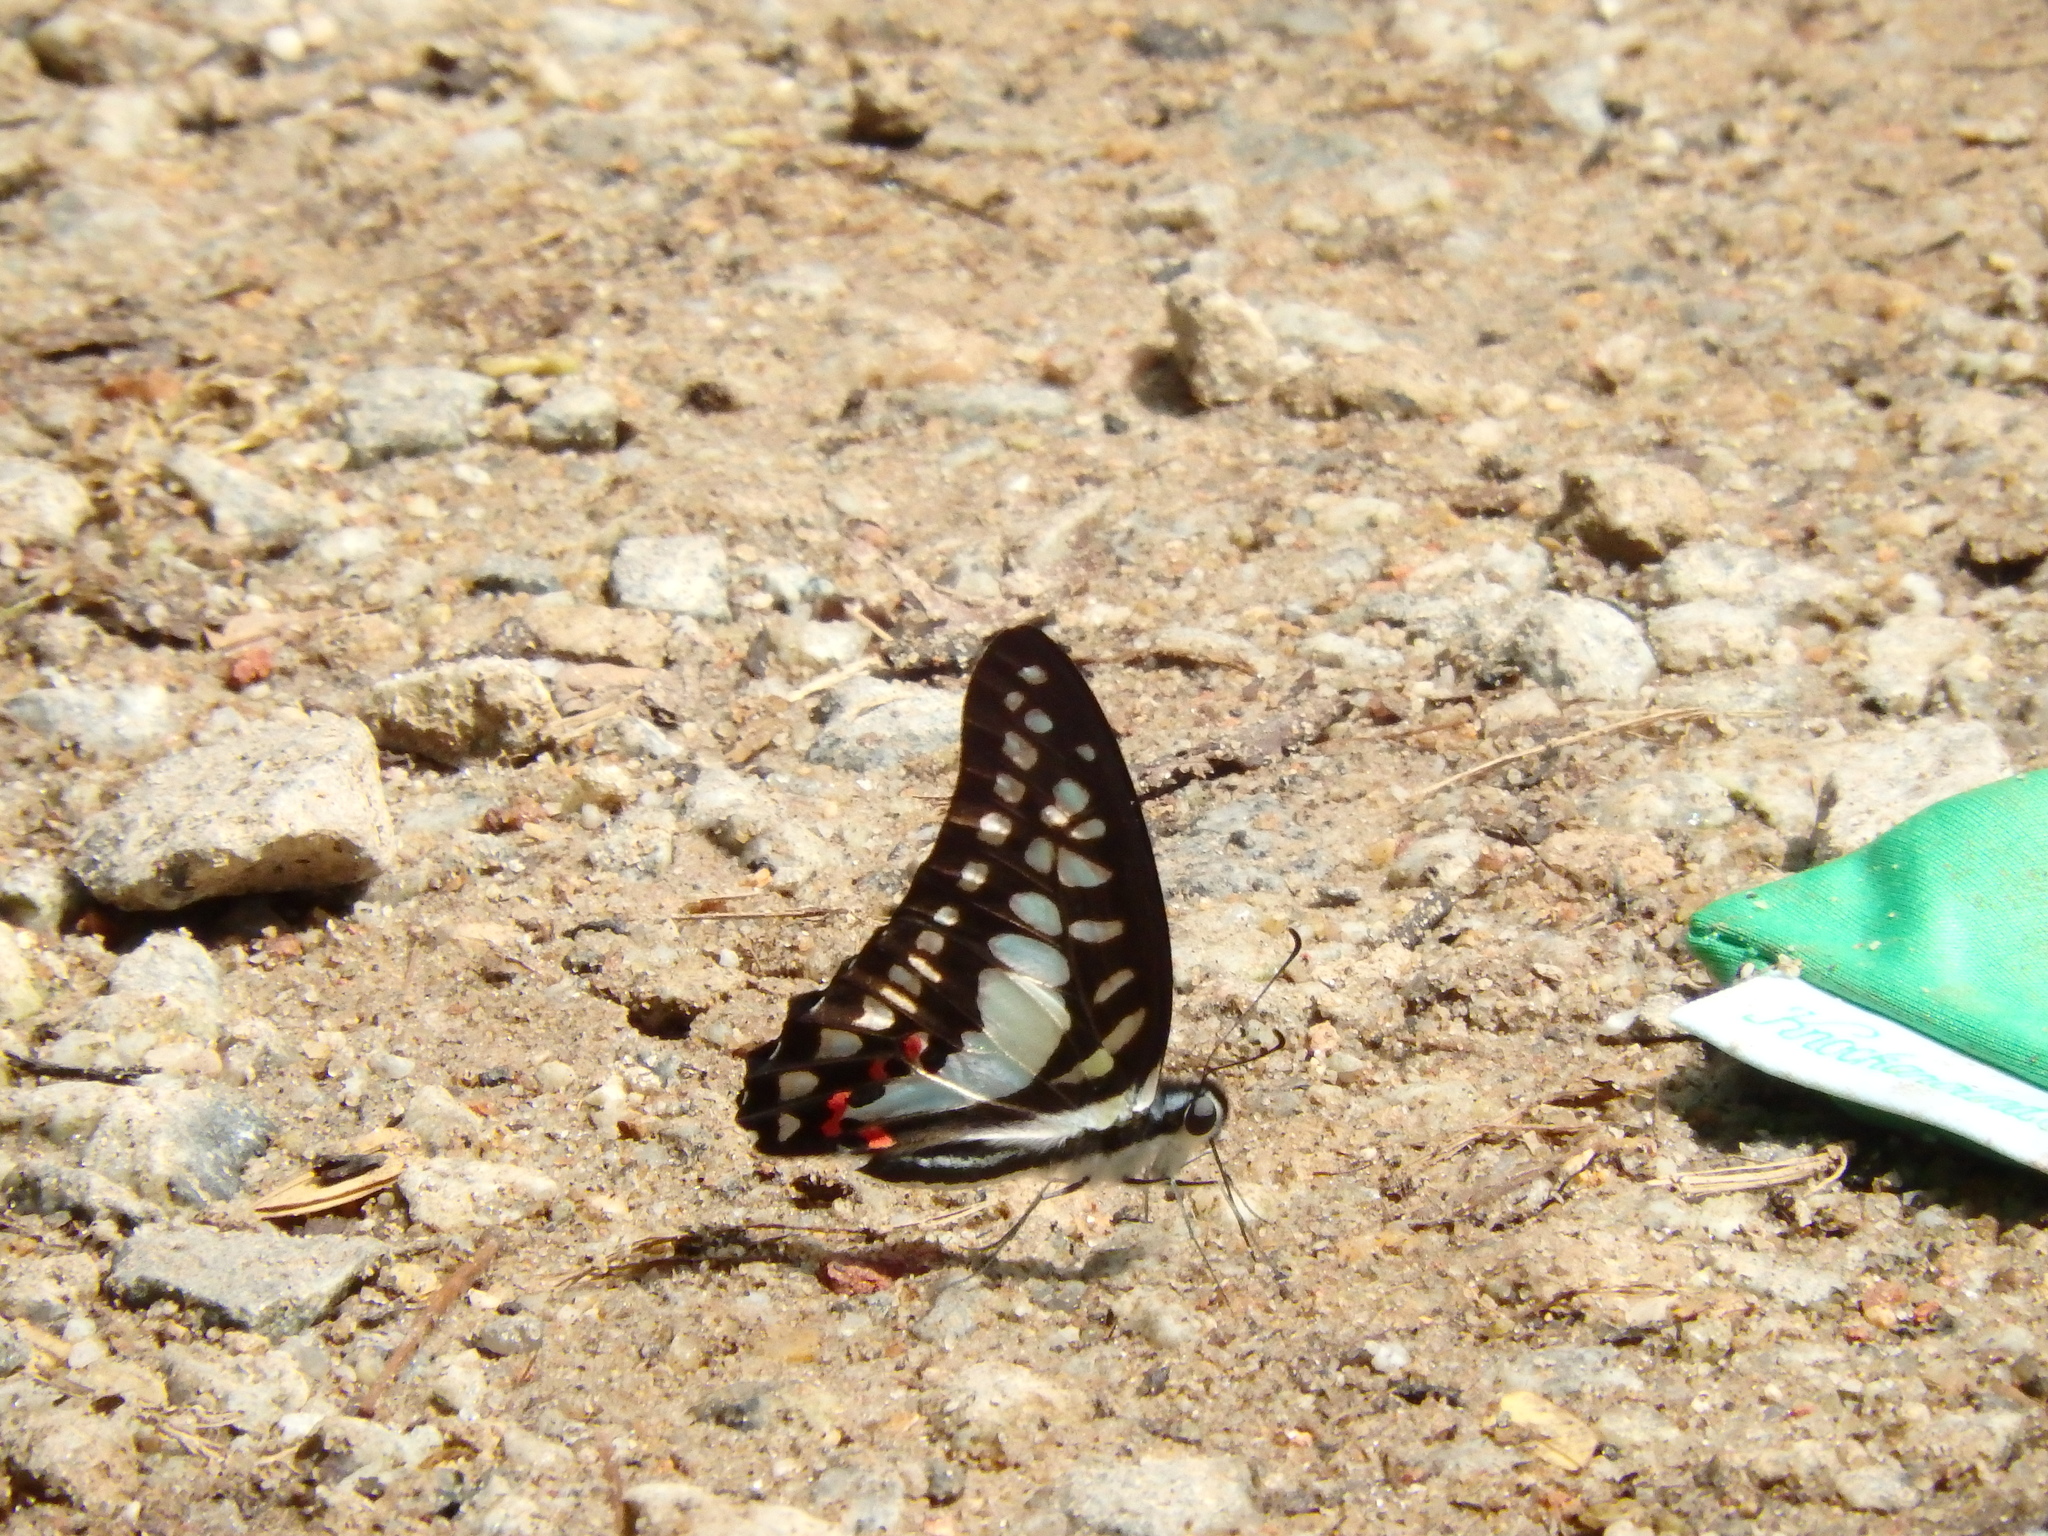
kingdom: Animalia
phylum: Arthropoda
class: Insecta
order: Lepidoptera
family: Papilionidae
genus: Graphium
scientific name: Graphium evemon
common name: Lesser jay
